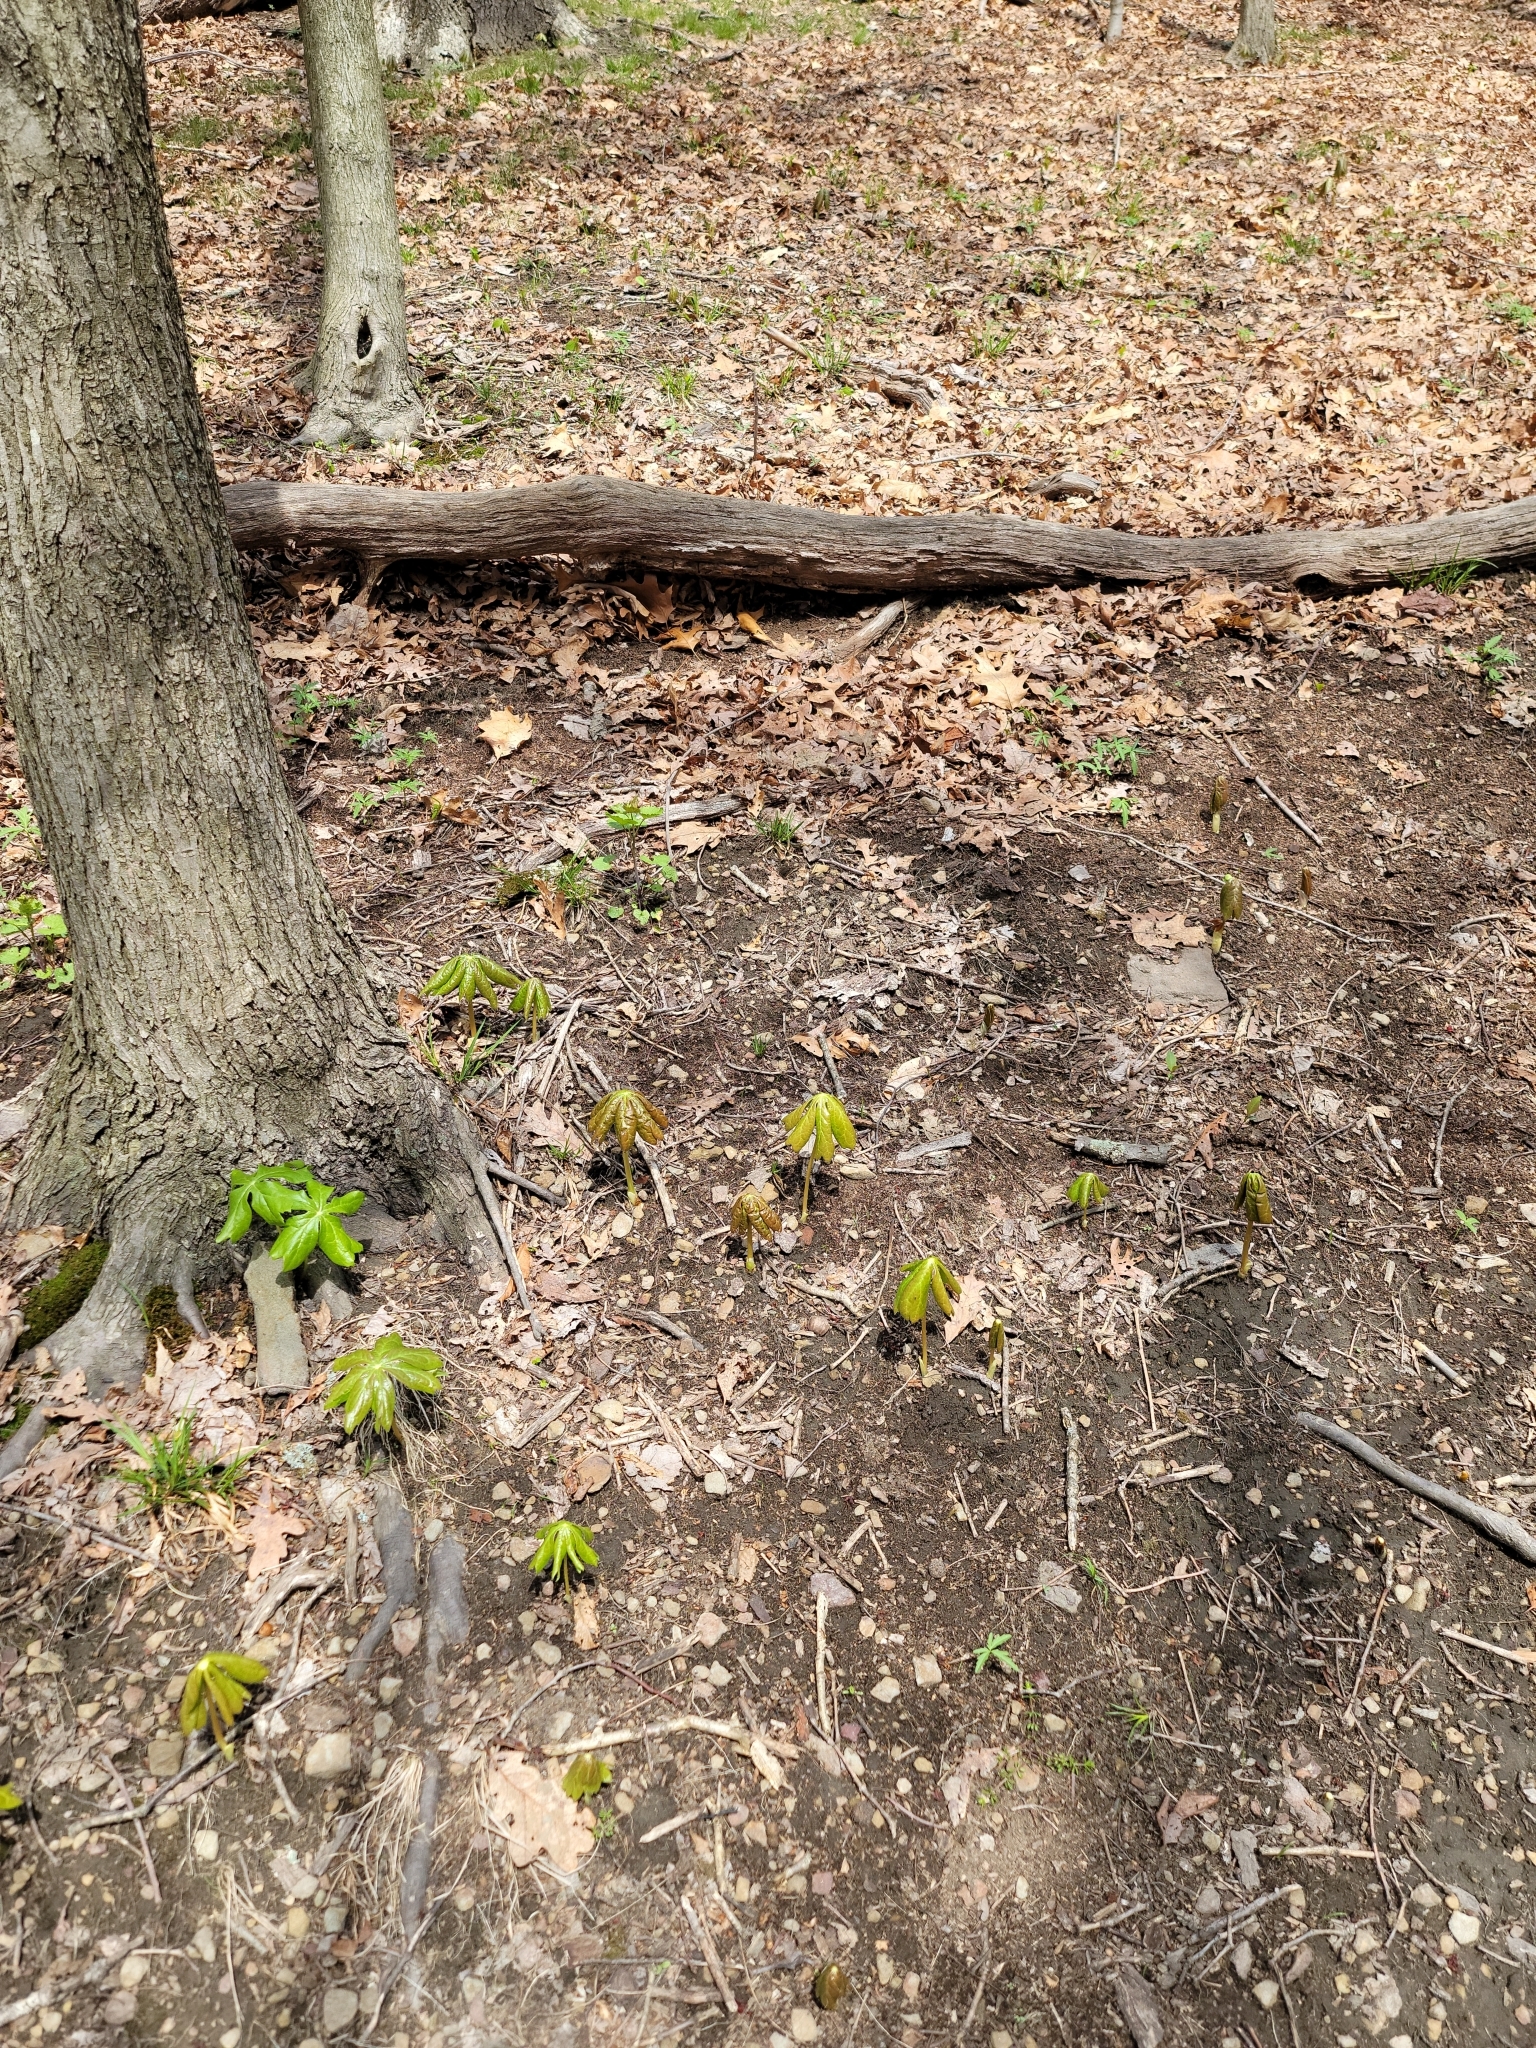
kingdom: Plantae
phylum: Tracheophyta
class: Magnoliopsida
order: Ranunculales
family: Berberidaceae
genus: Podophyllum
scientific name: Podophyllum peltatum
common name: Wild mandrake
